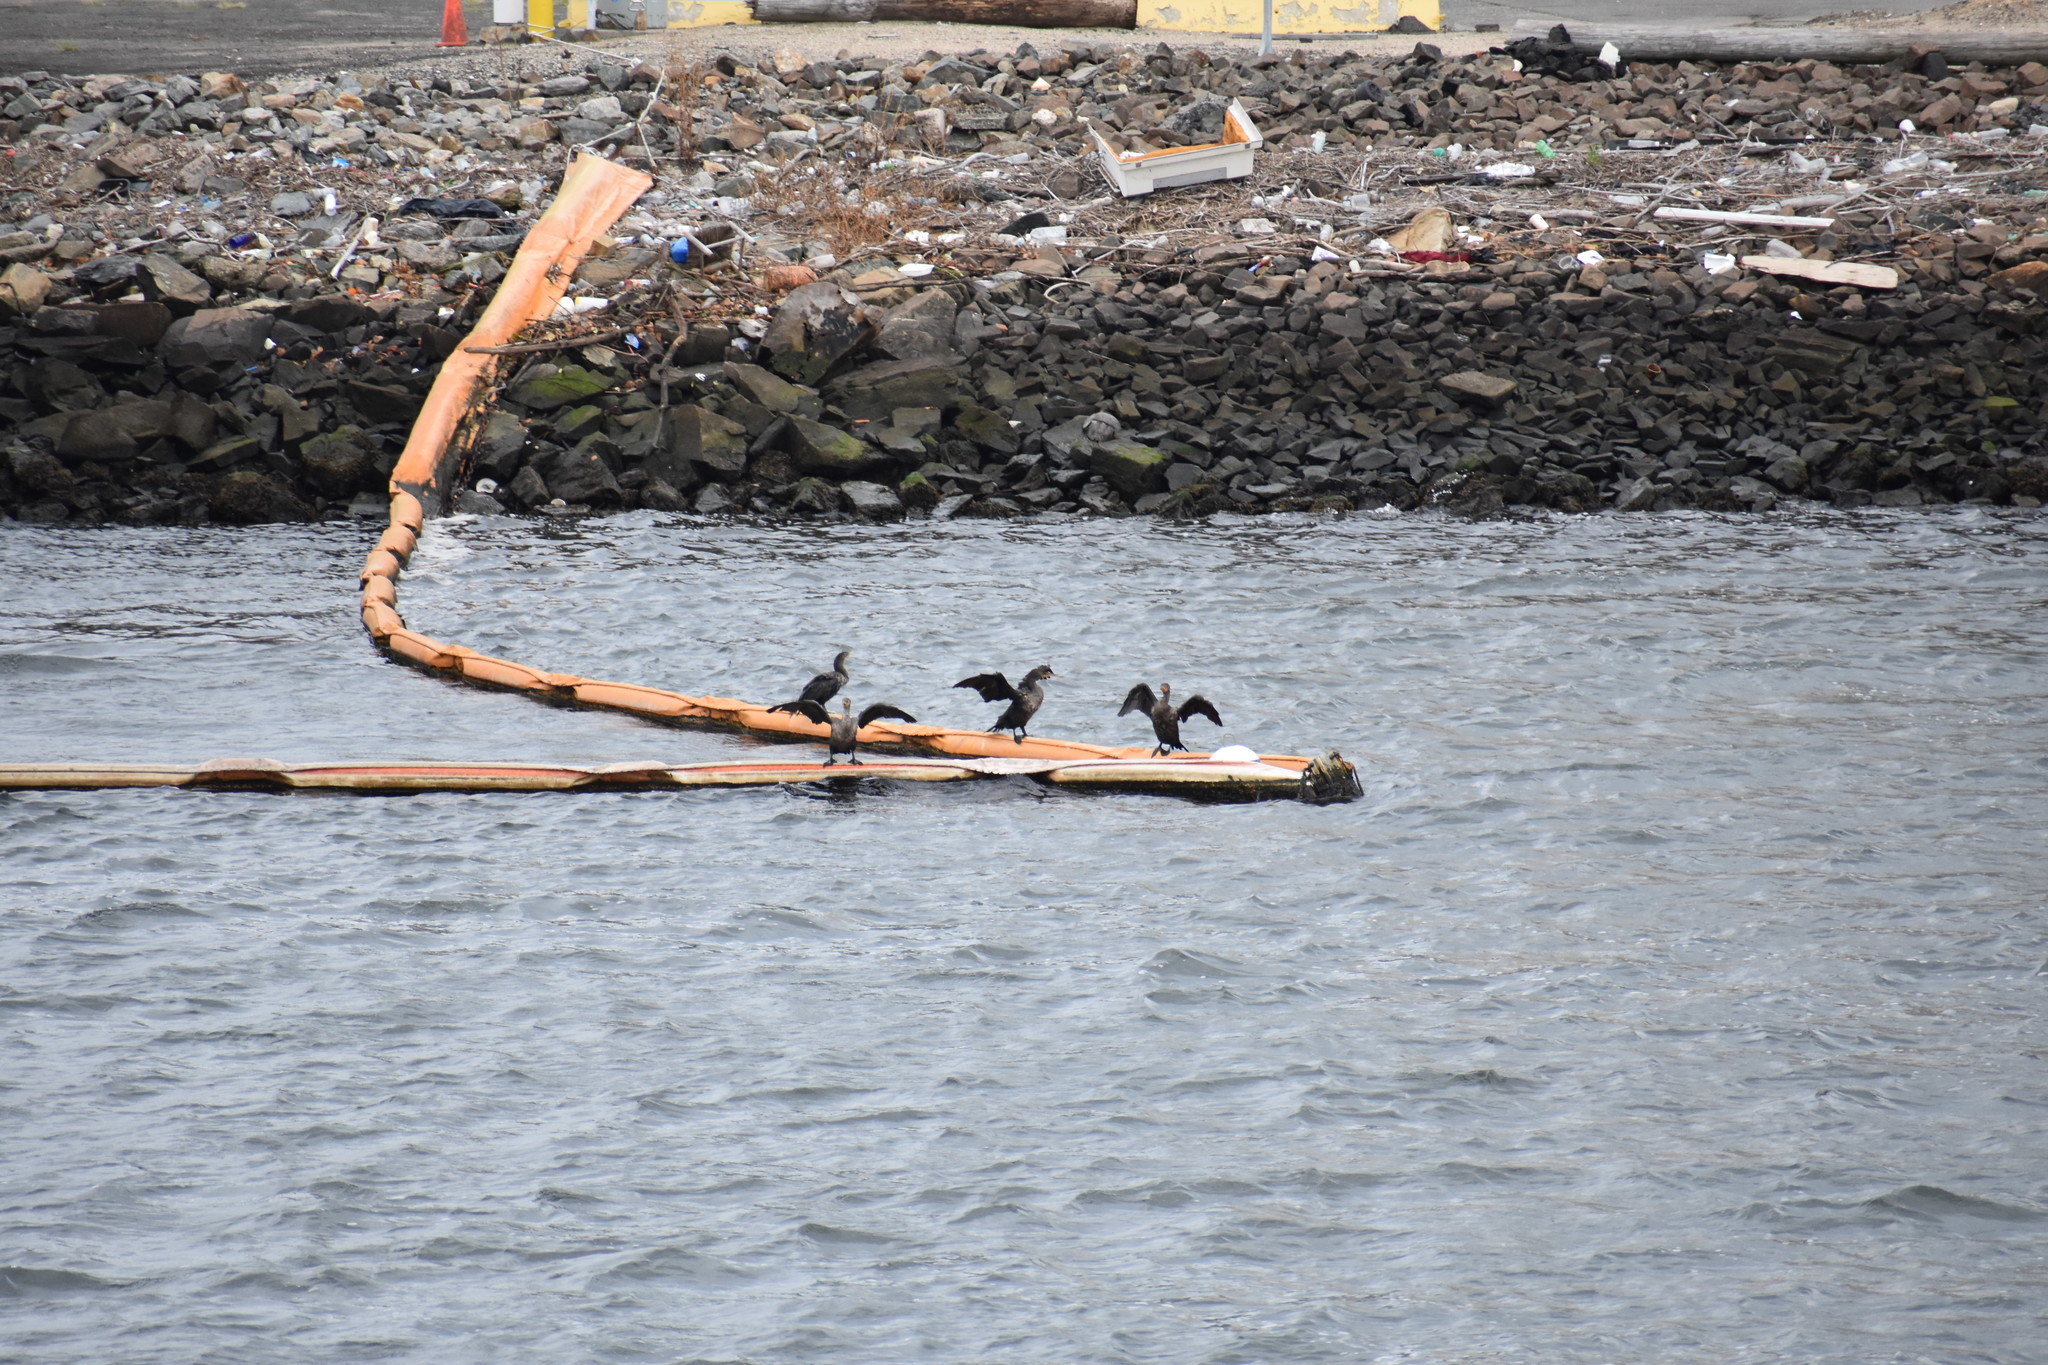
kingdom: Animalia
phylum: Chordata
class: Aves
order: Suliformes
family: Phalacrocoracidae
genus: Phalacrocorax
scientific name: Phalacrocorax auritus
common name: Double-crested cormorant
